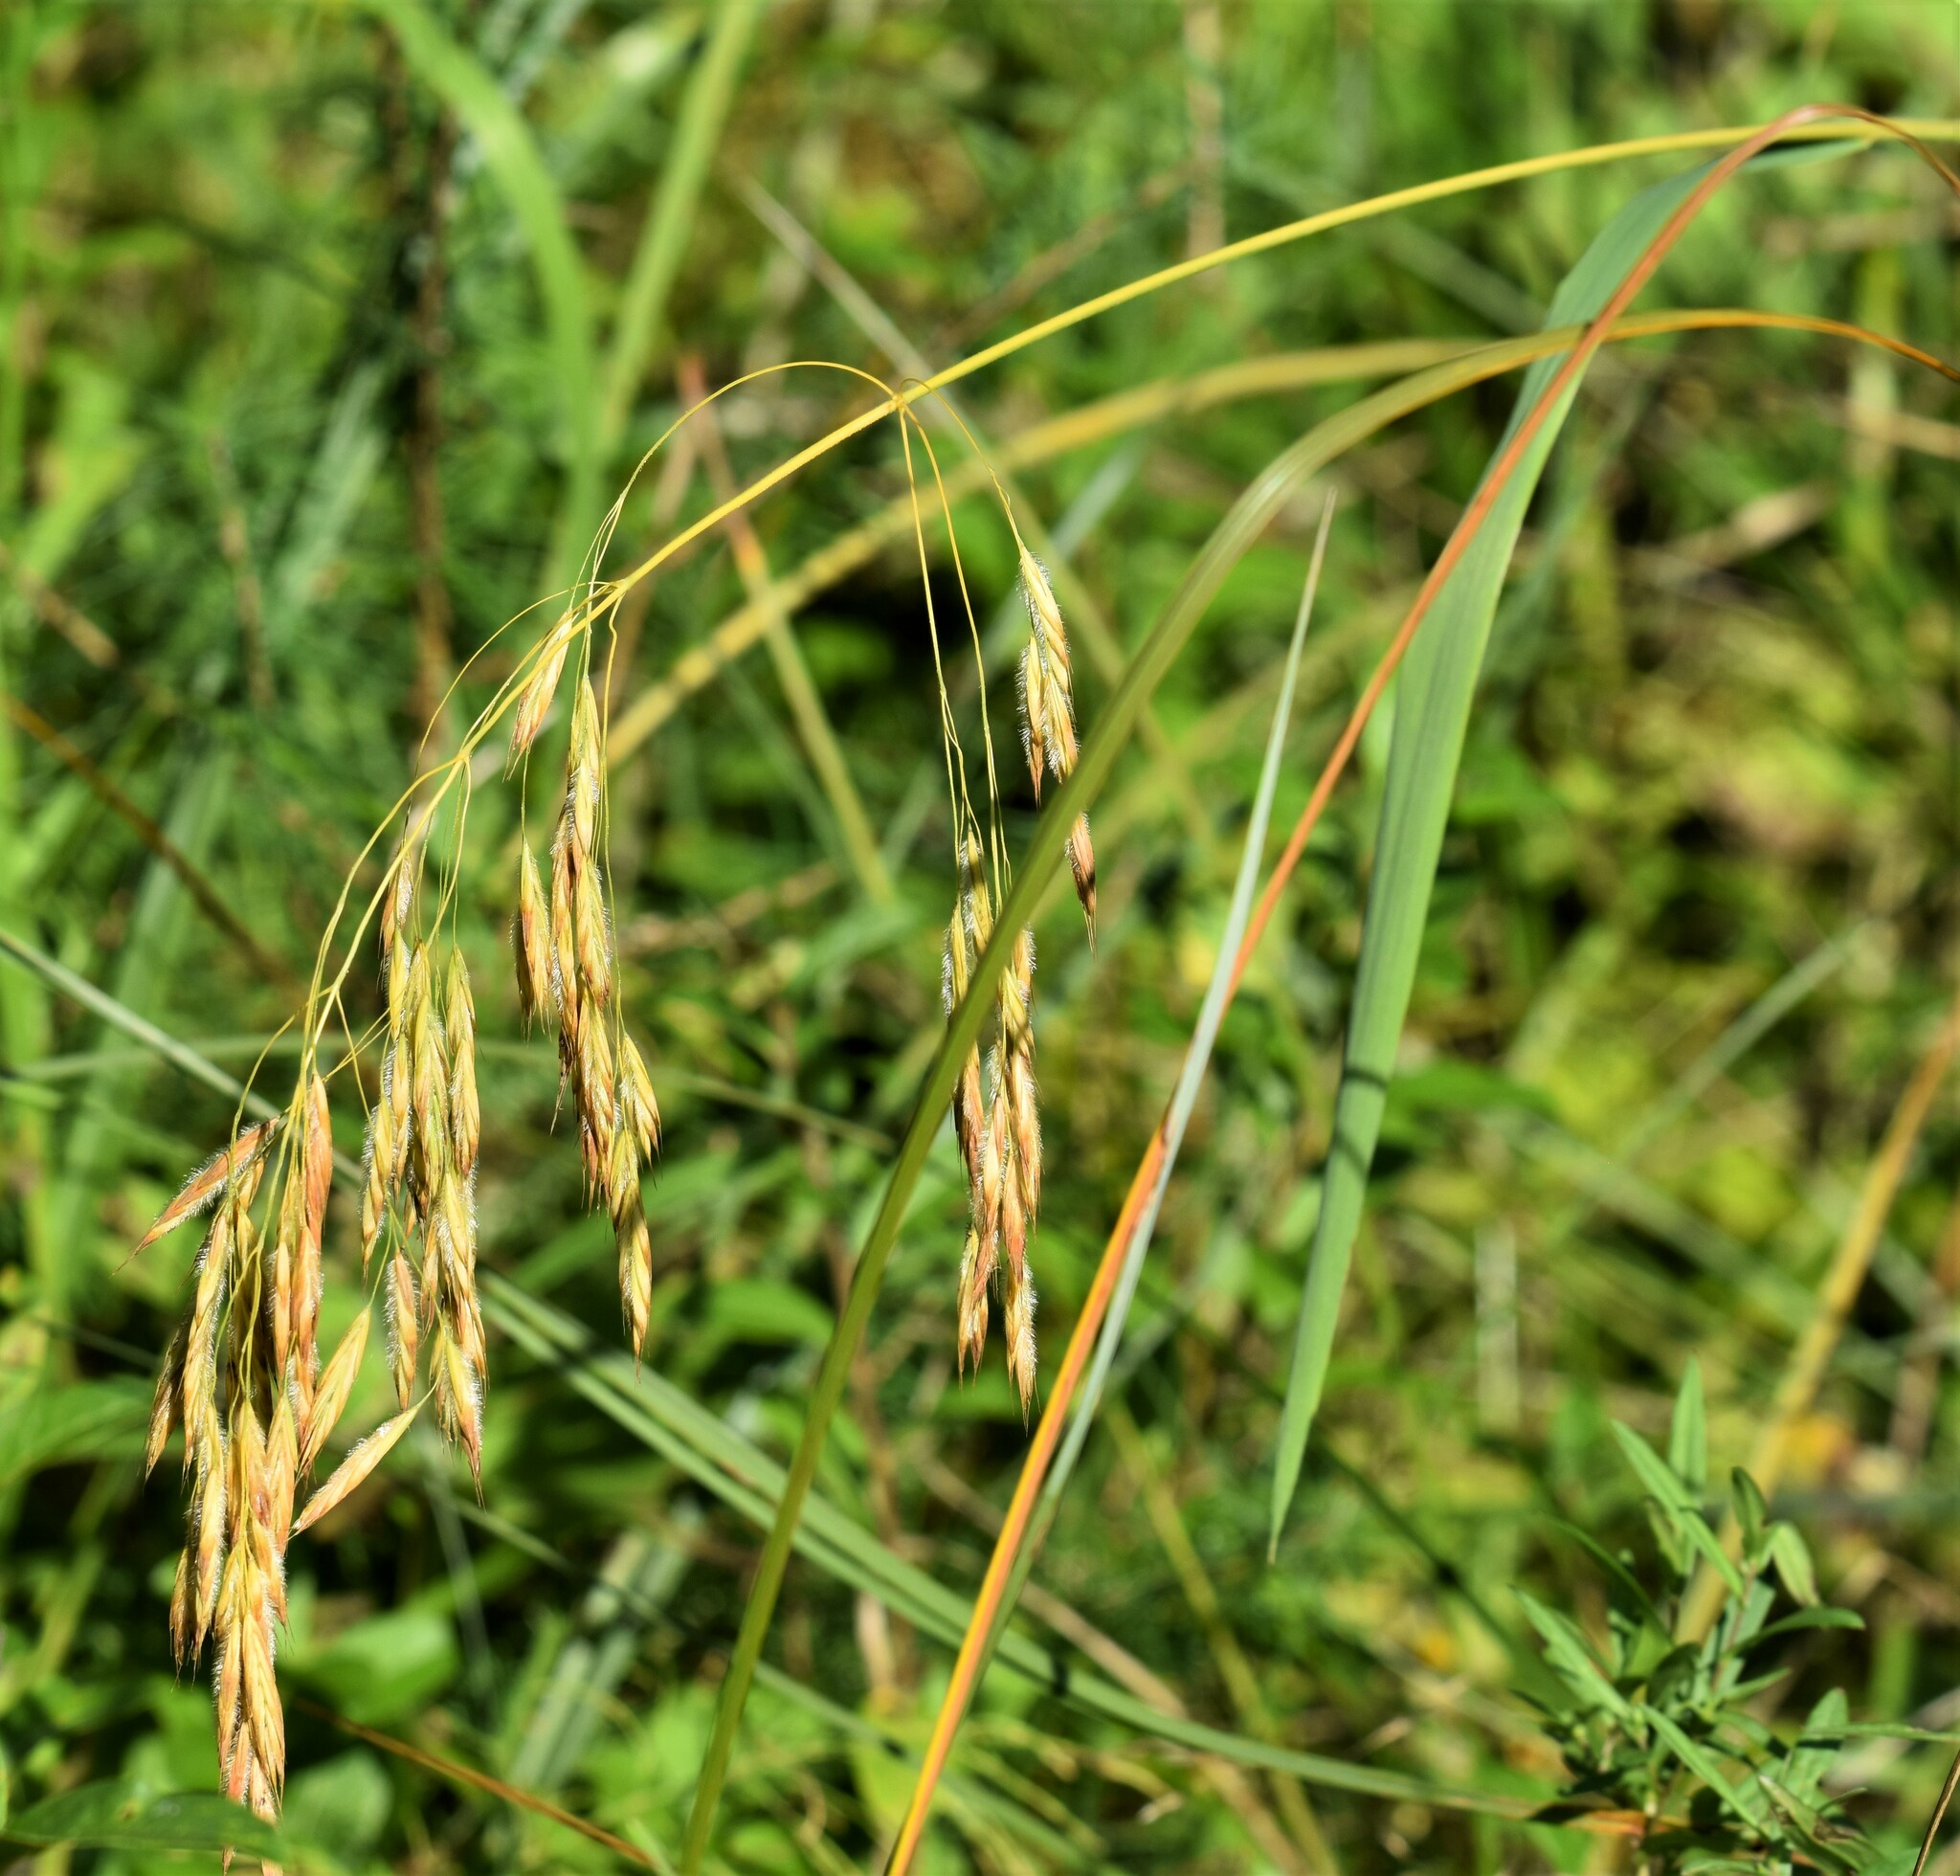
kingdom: Plantae
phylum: Tracheophyta
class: Liliopsida
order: Poales
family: Poaceae
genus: Bromus
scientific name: Bromus ciliatus
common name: Fringe brome
